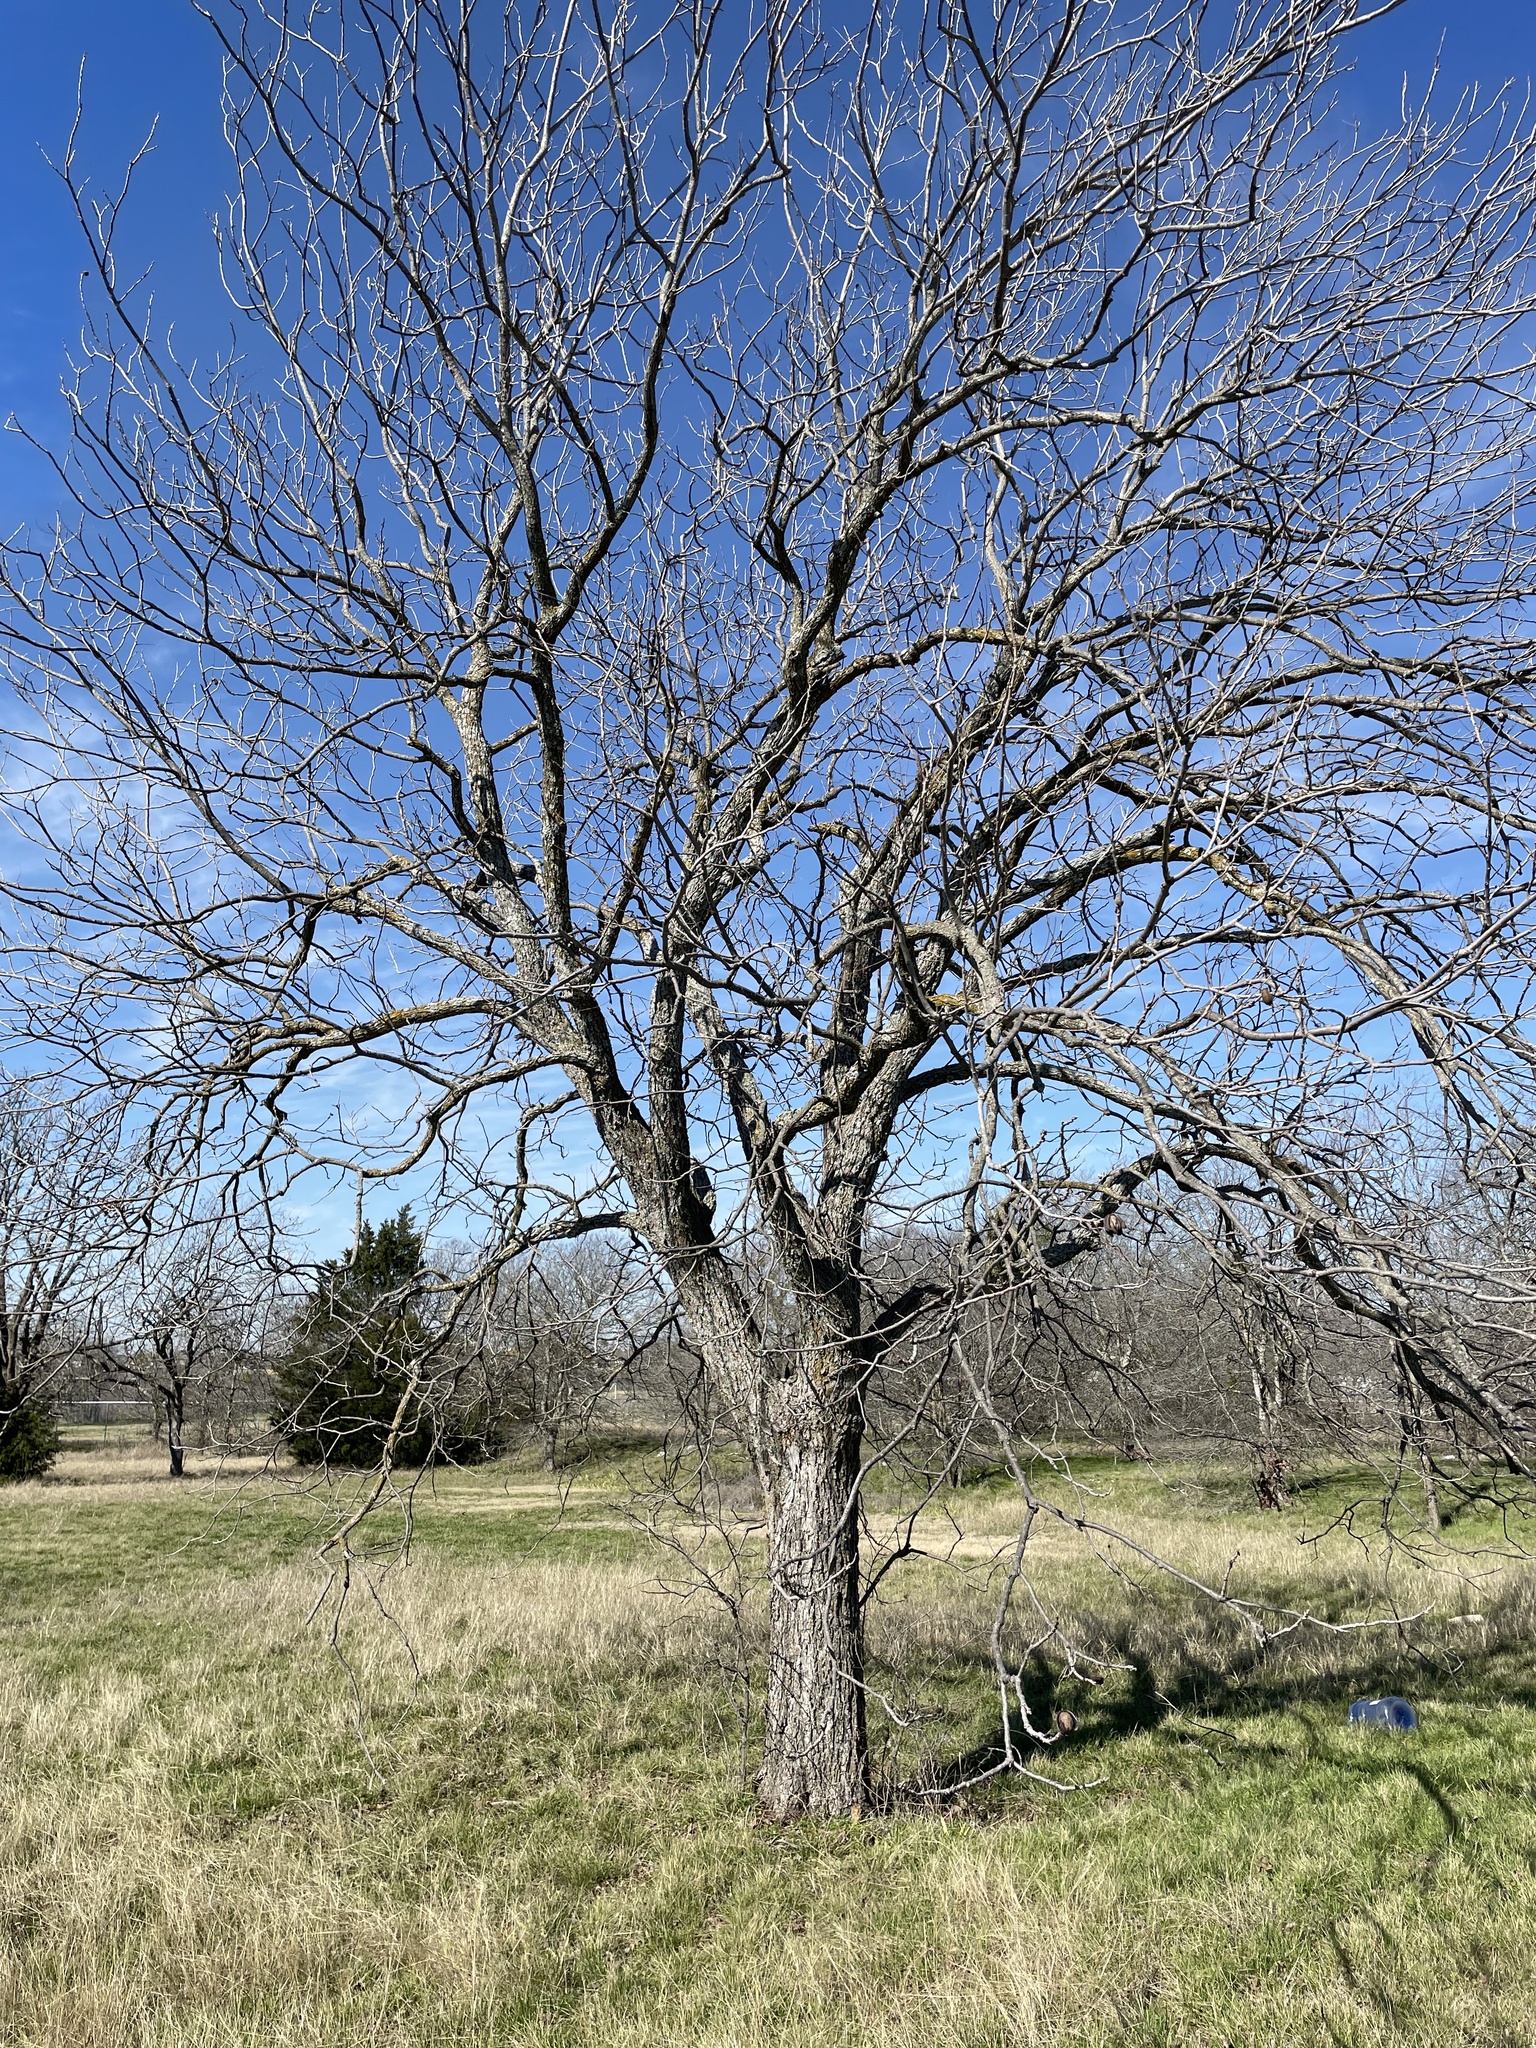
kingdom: Plantae
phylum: Tracheophyta
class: Magnoliopsida
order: Fagales
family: Juglandaceae
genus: Carya
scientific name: Carya illinoinensis
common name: Pecan
